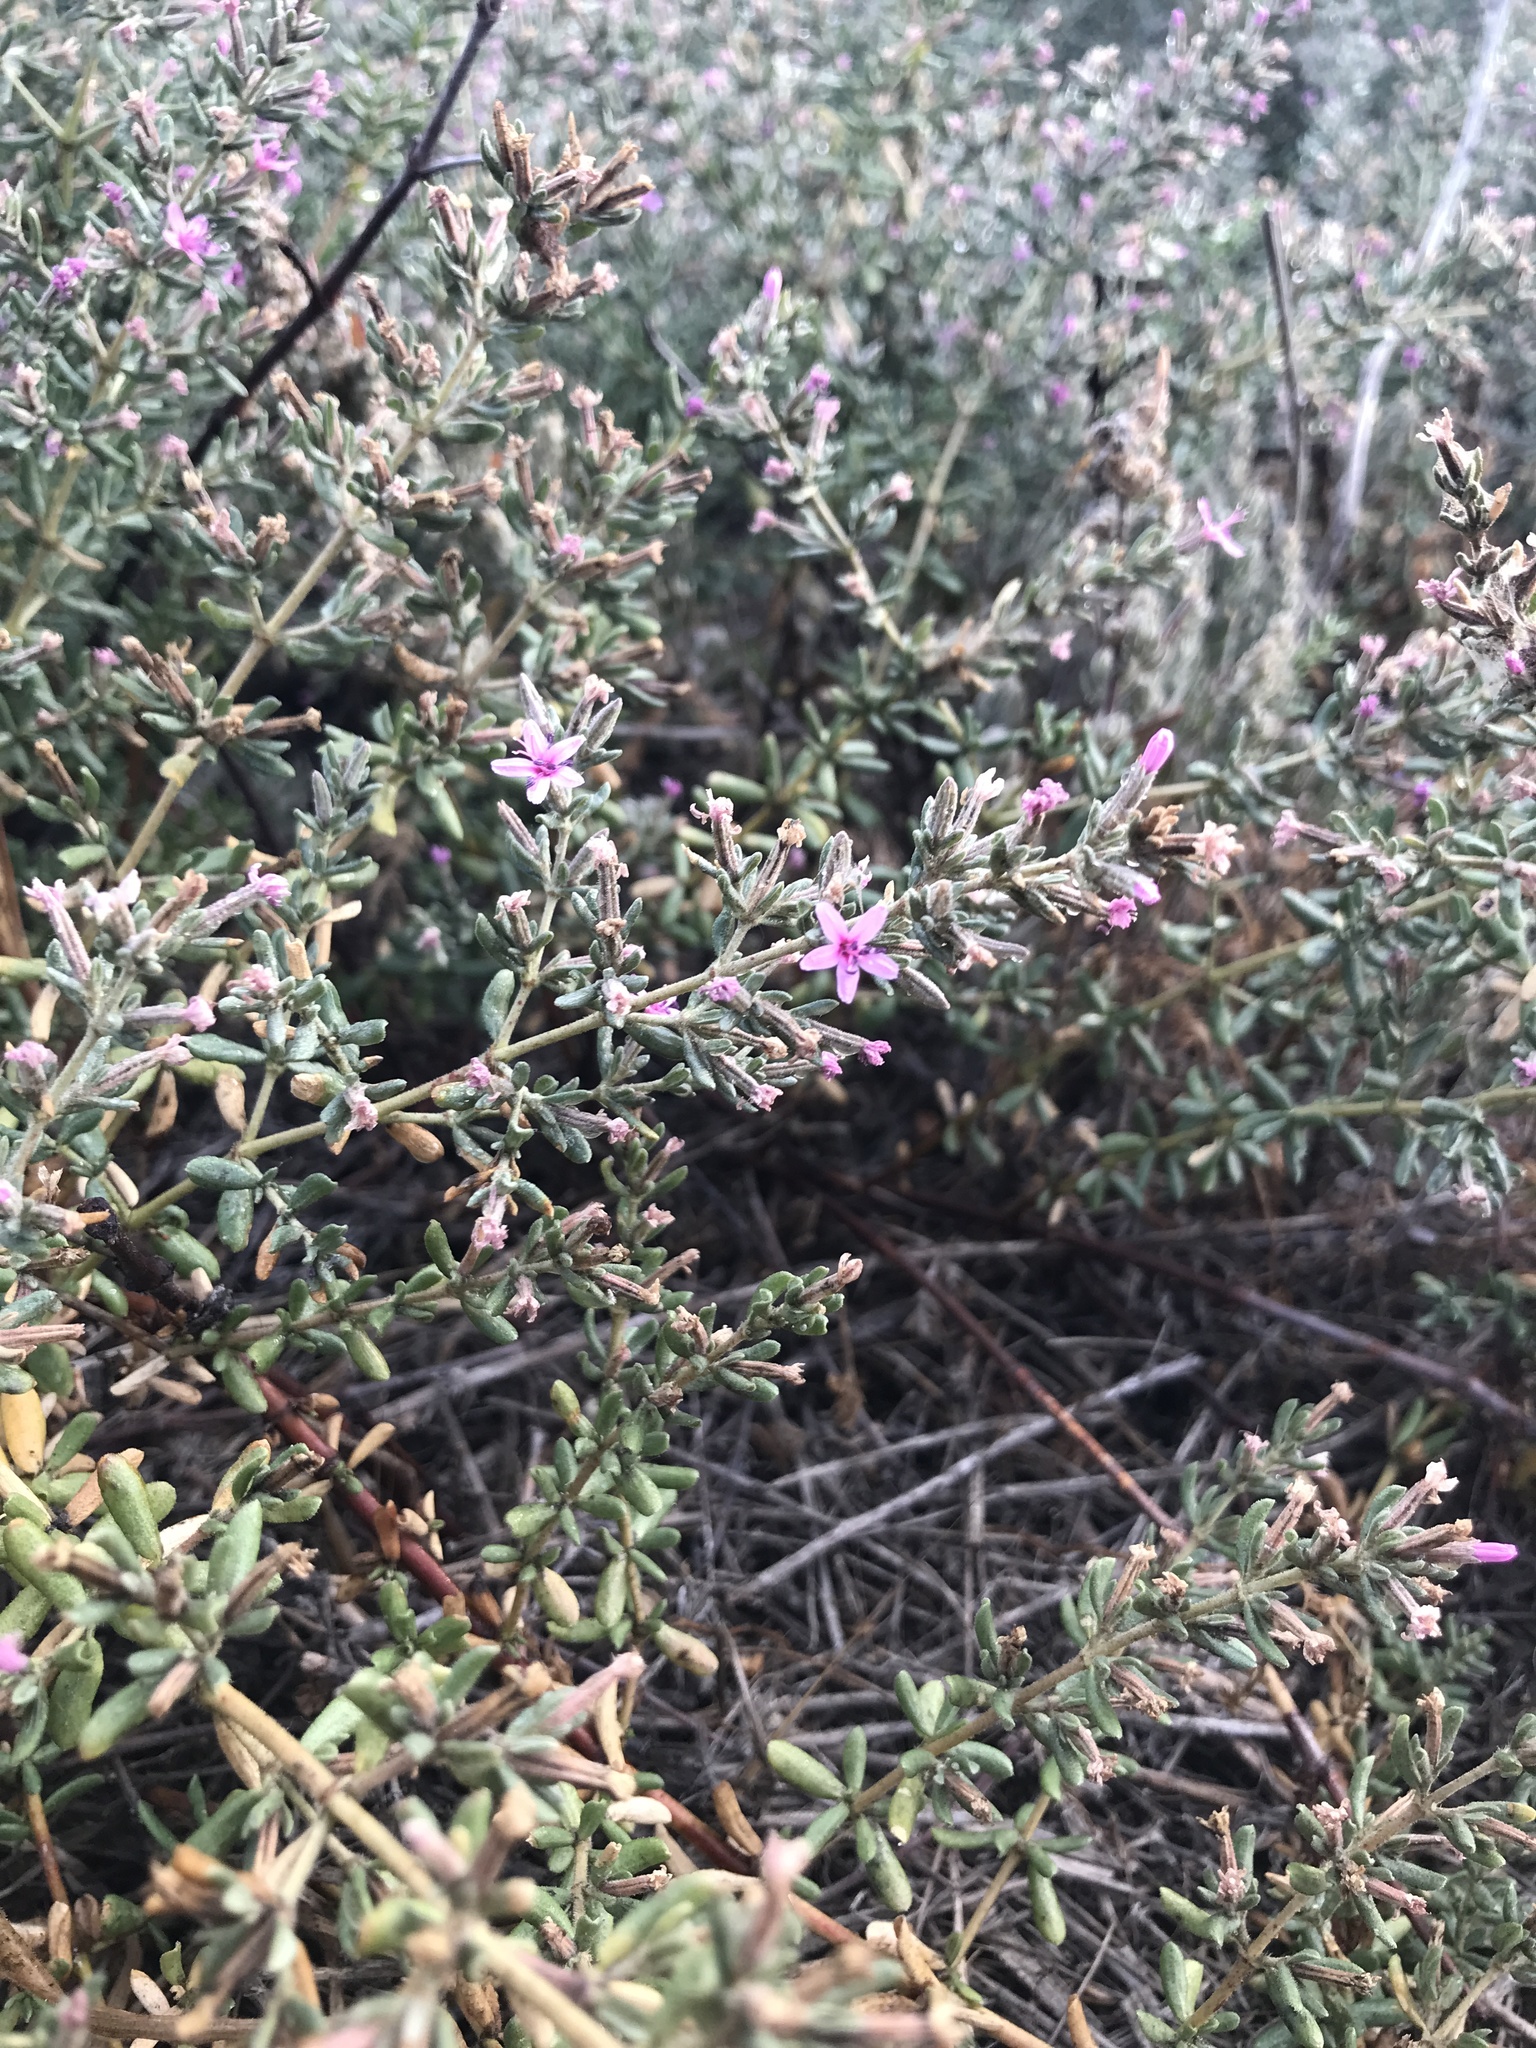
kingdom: Plantae
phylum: Tracheophyta
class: Magnoliopsida
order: Caryophyllales
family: Frankeniaceae
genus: Frankenia
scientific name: Frankenia salina
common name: Alkali seaheath
